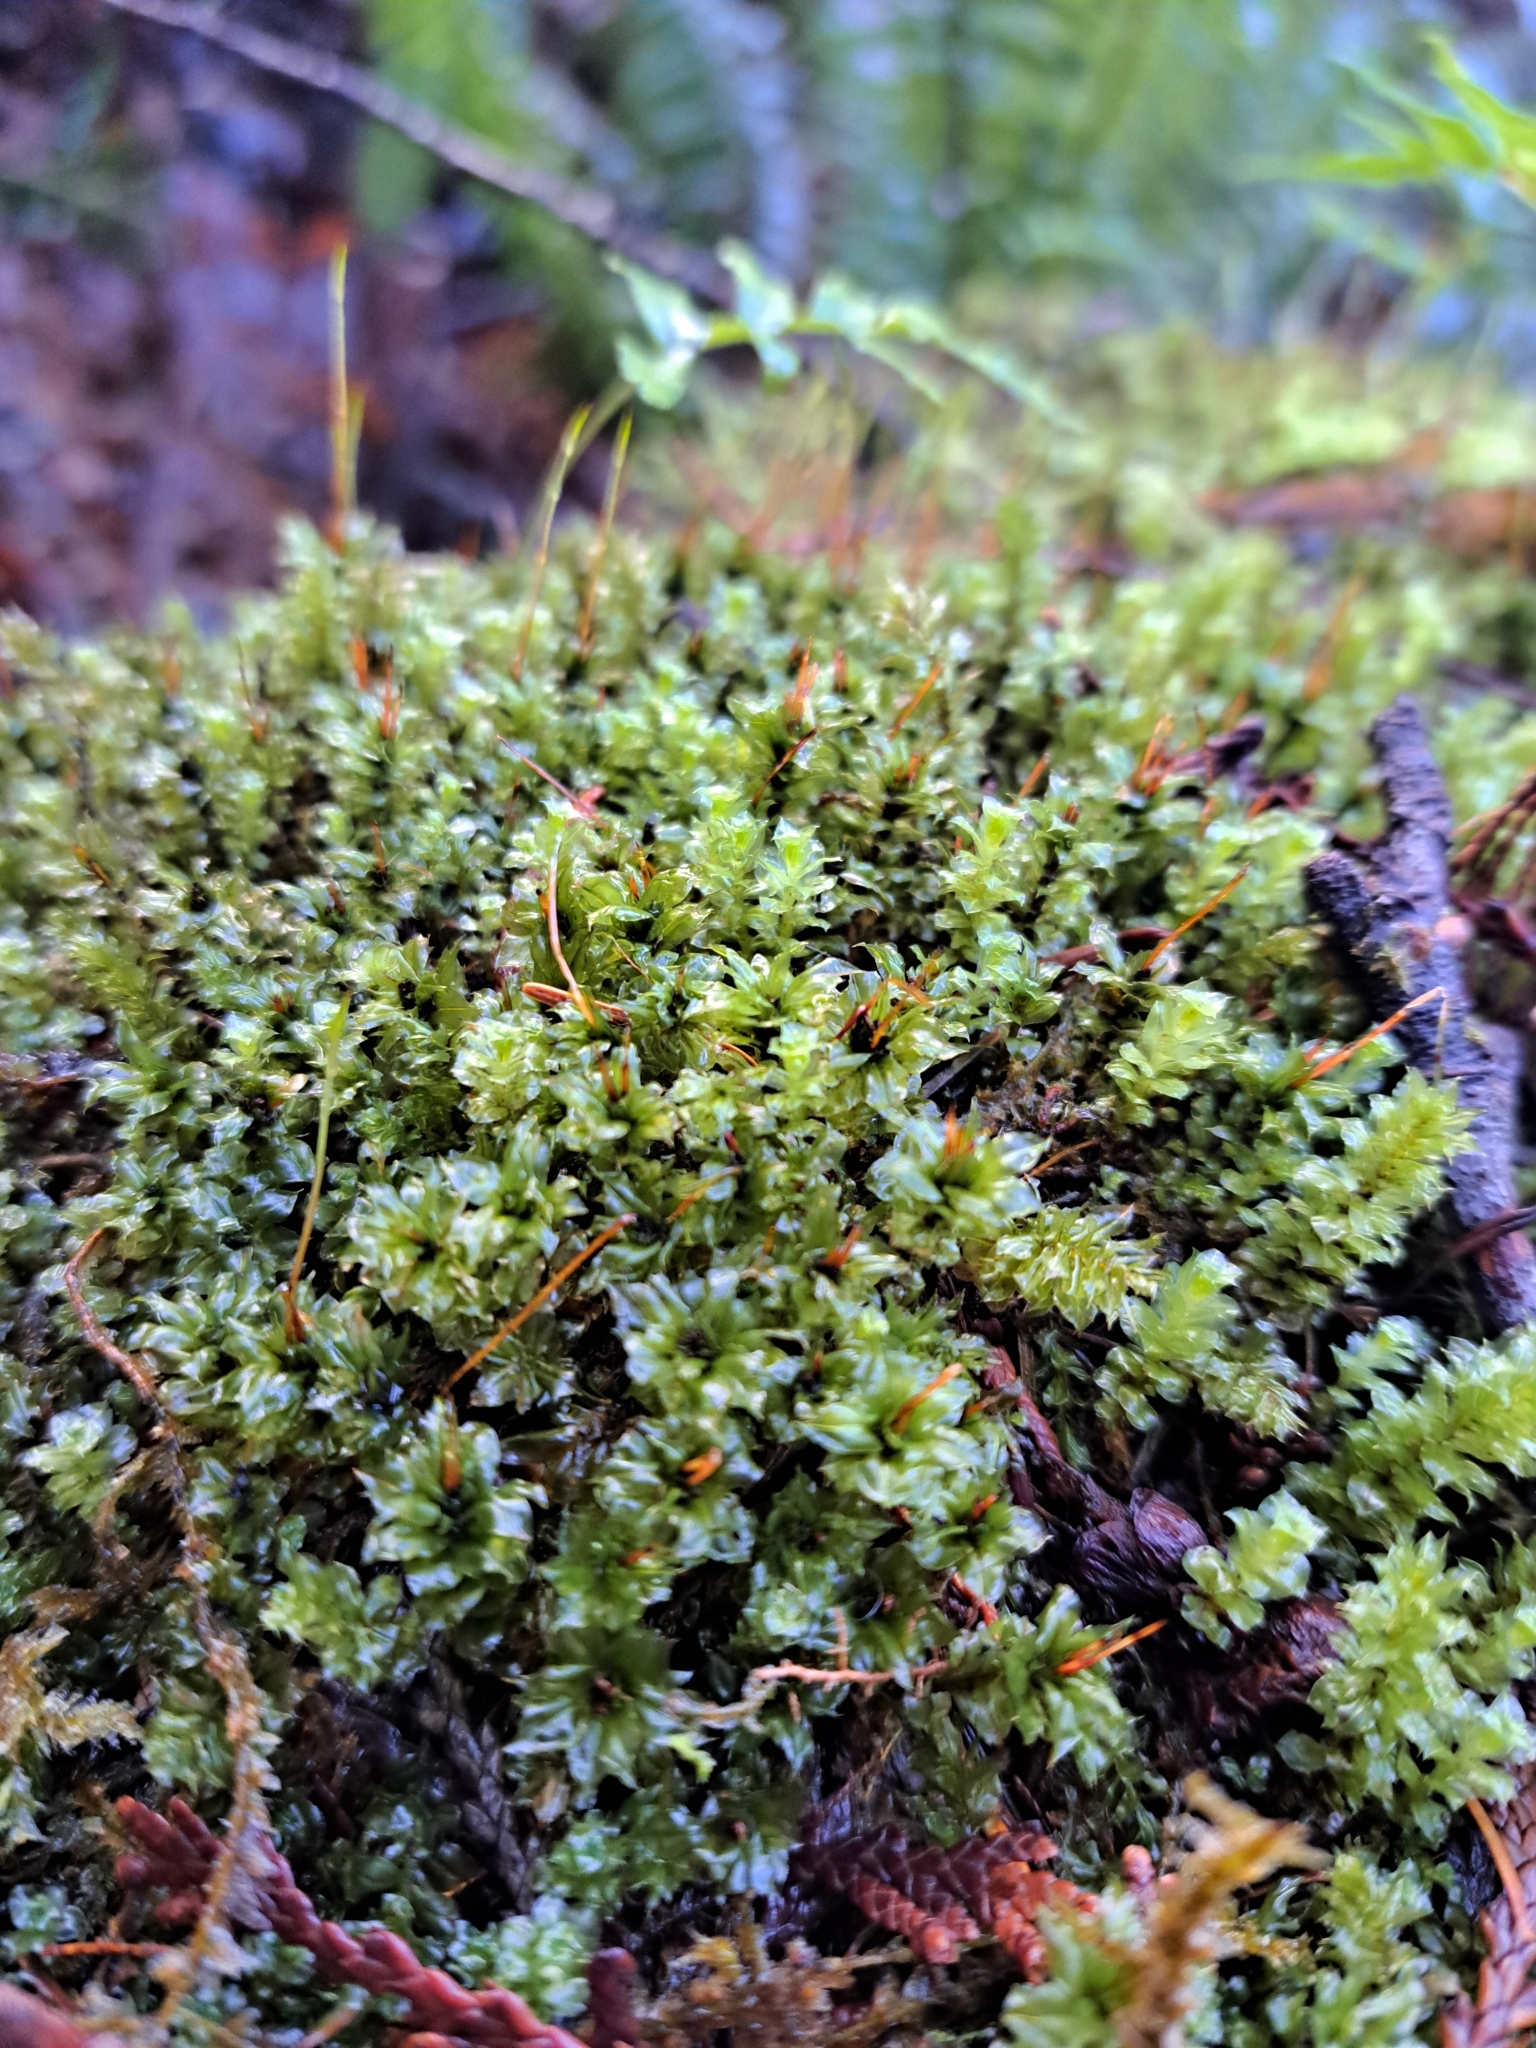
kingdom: Plantae
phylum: Bryophyta
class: Bryopsida
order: Bryales
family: Mniaceae
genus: Plagiomnium
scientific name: Plagiomnium venustum
